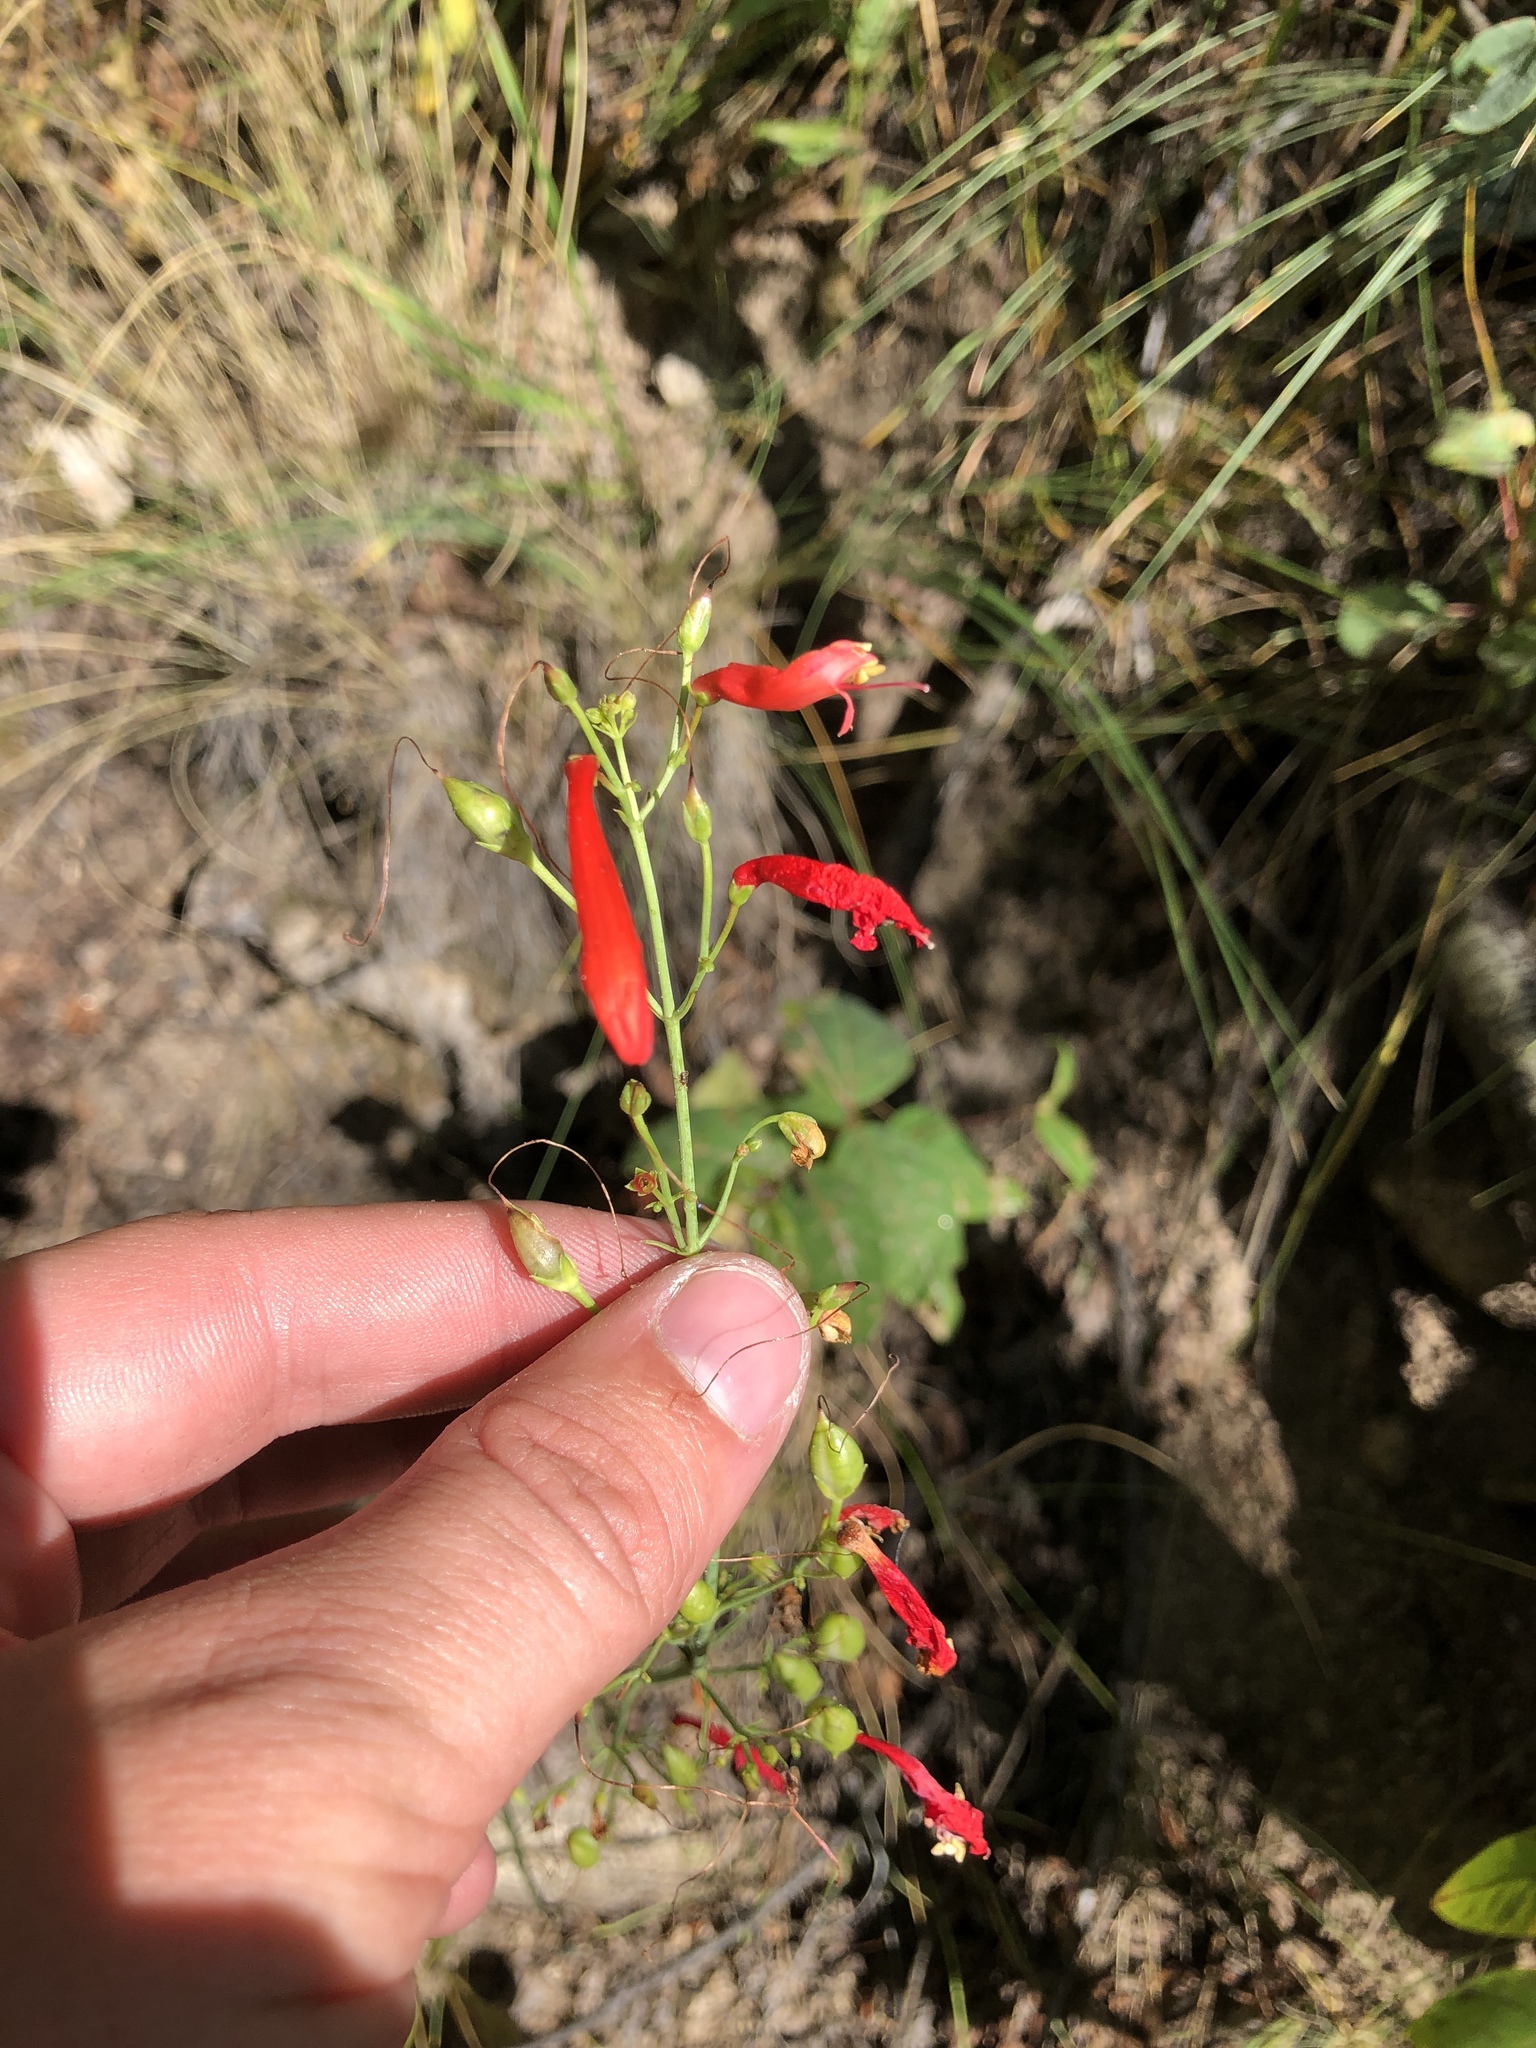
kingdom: Plantae
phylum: Tracheophyta
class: Magnoliopsida
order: Lamiales
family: Plantaginaceae
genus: Penstemon
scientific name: Penstemon barbatus
